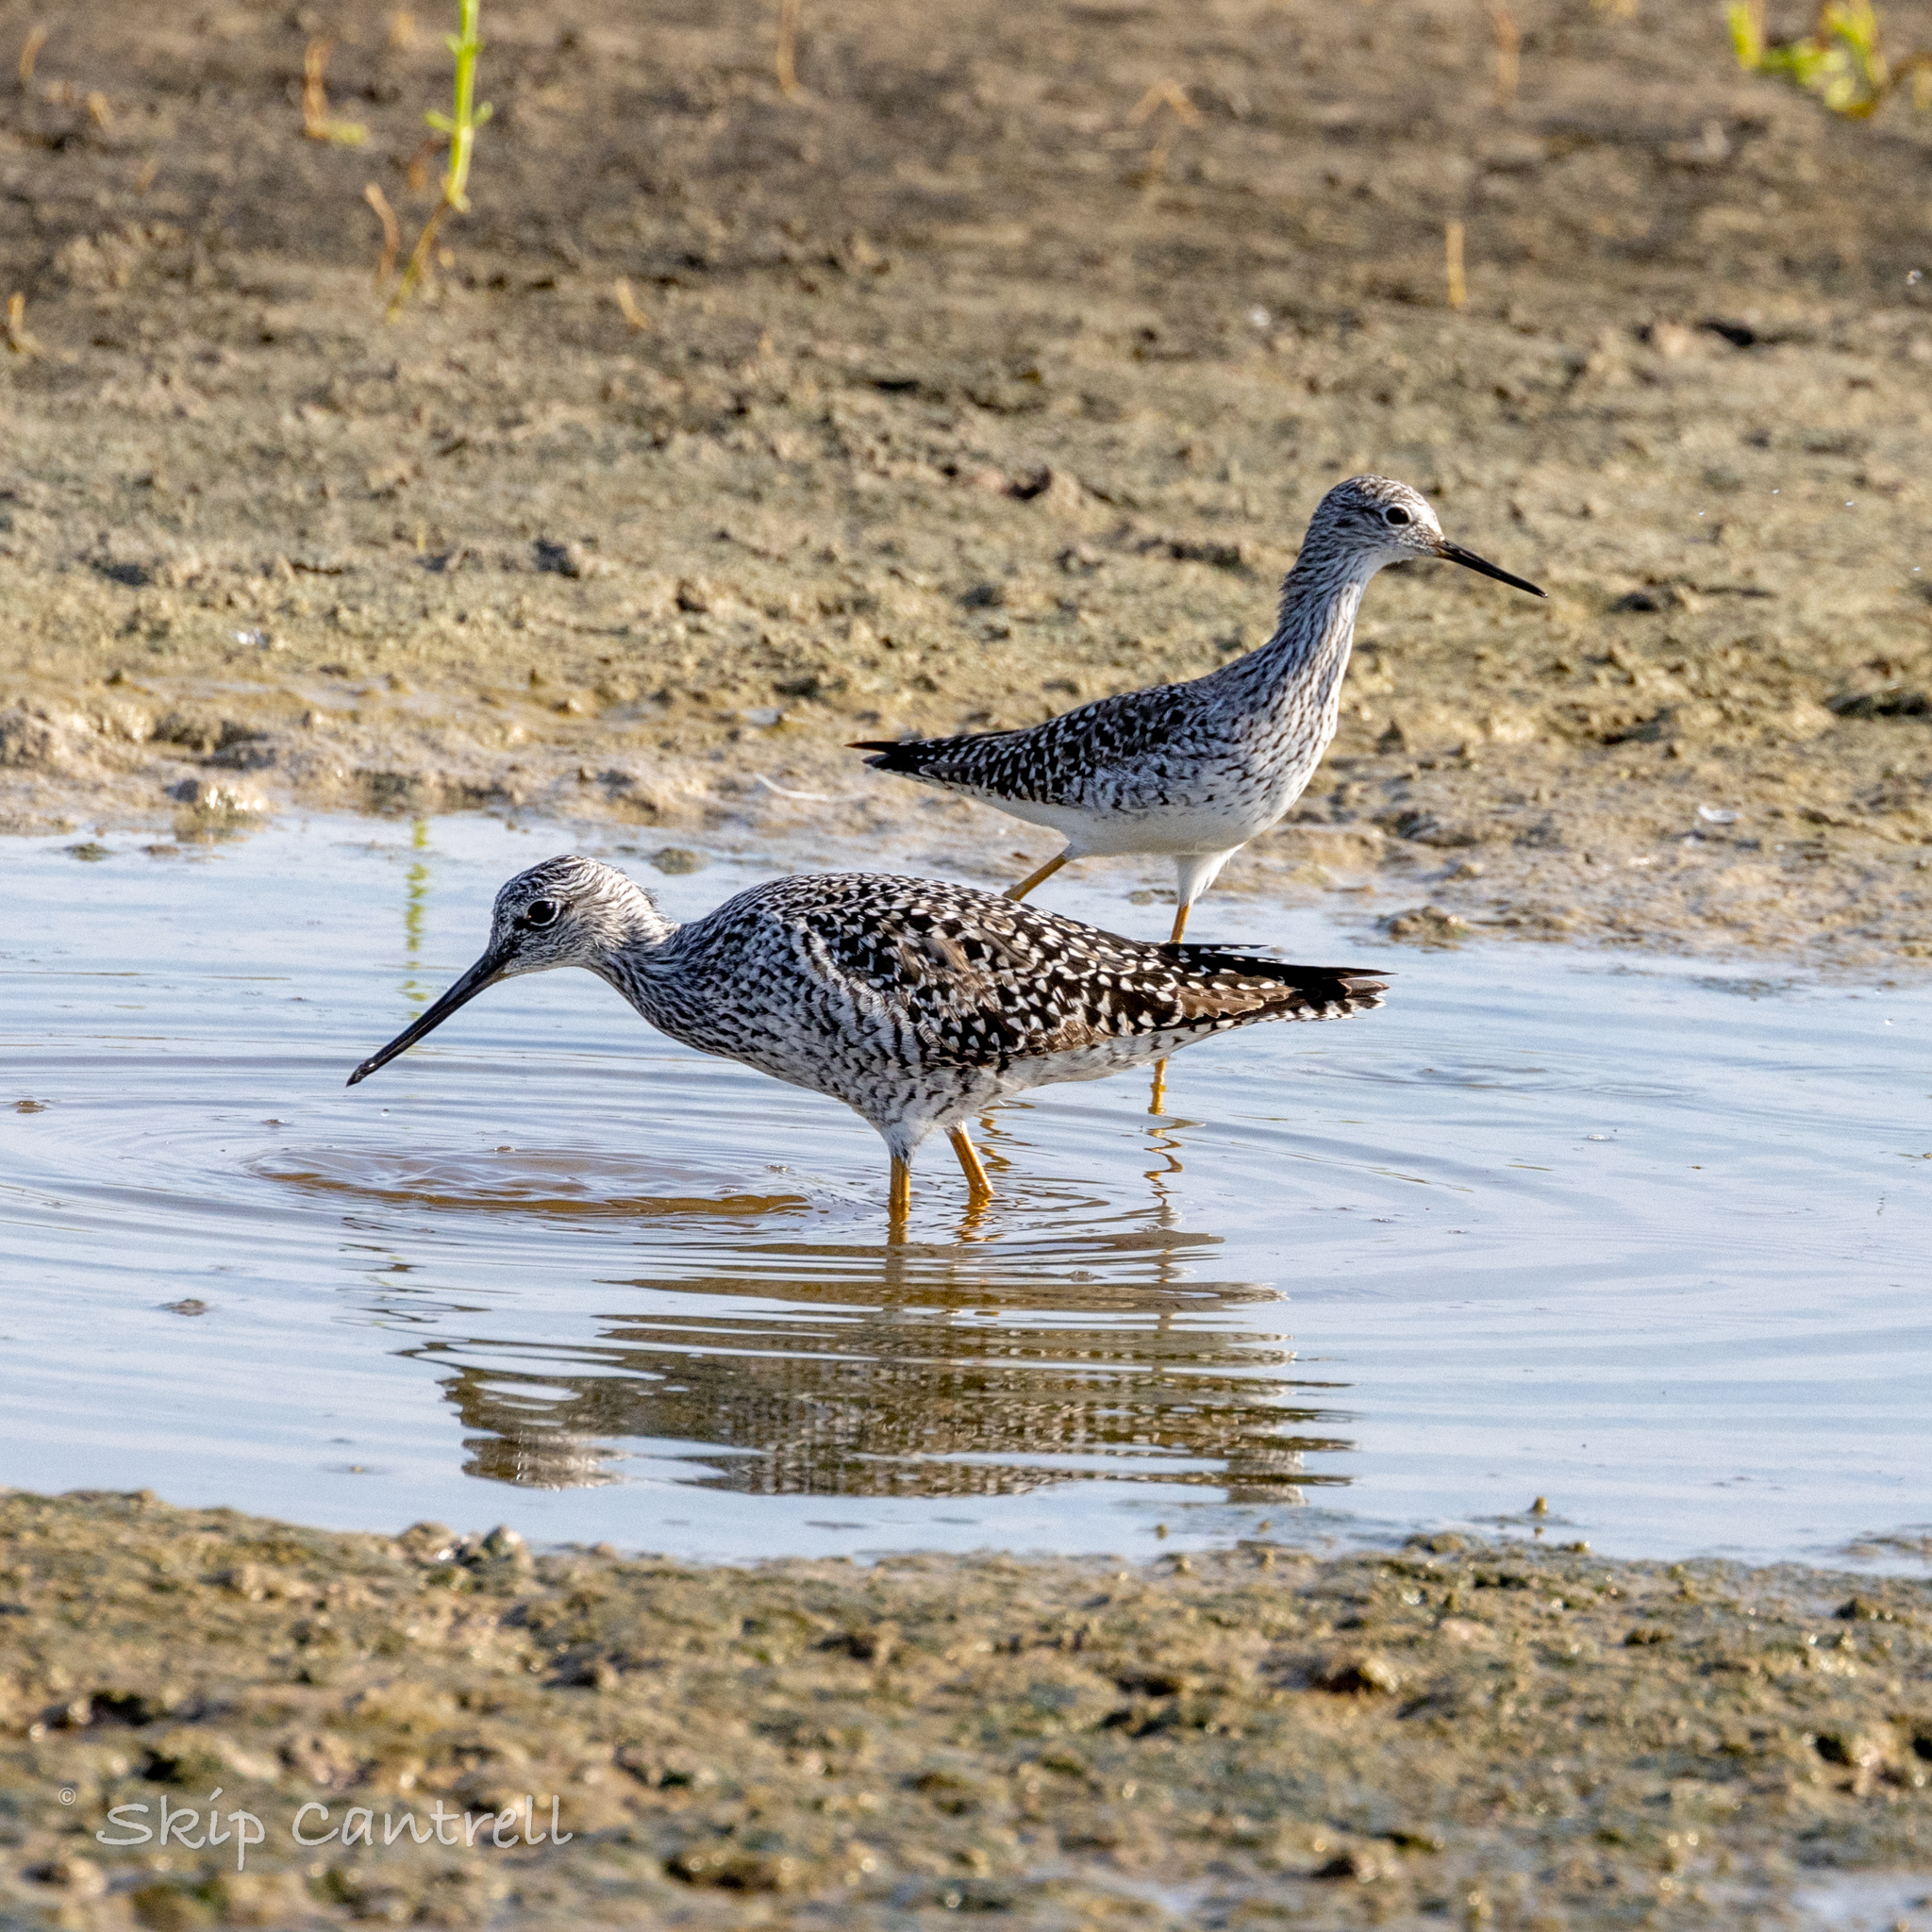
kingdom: Animalia
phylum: Chordata
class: Aves
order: Charadriiformes
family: Scolopacidae
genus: Tringa
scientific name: Tringa melanoleuca
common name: Greater yellowlegs
